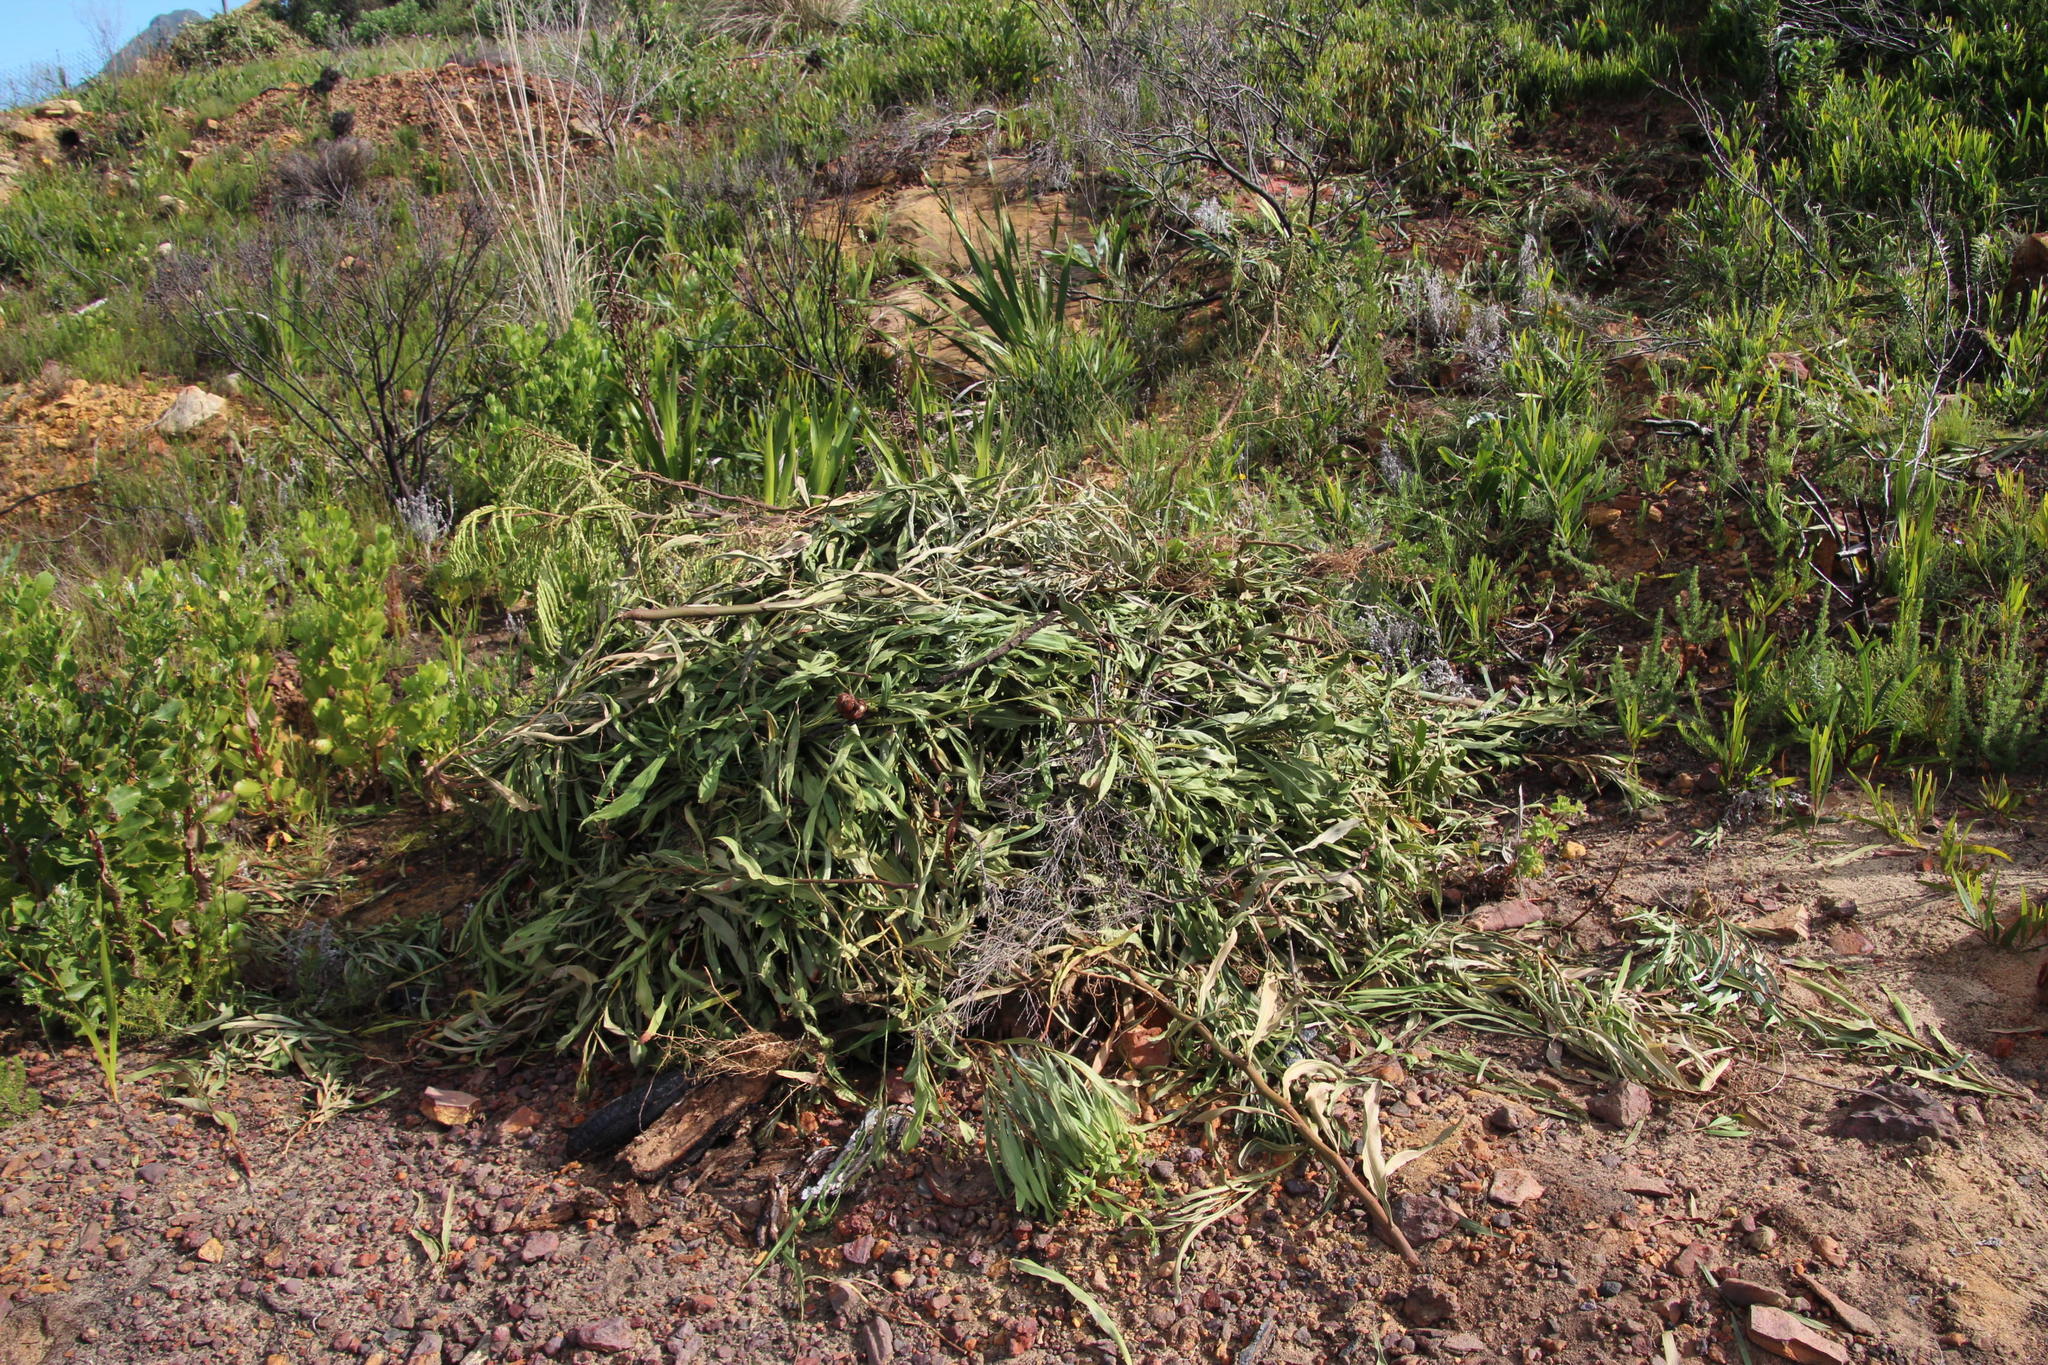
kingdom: Plantae
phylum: Tracheophyta
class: Magnoliopsida
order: Fabales
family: Fabaceae
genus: Acacia
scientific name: Acacia saligna
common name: Orange wattle
